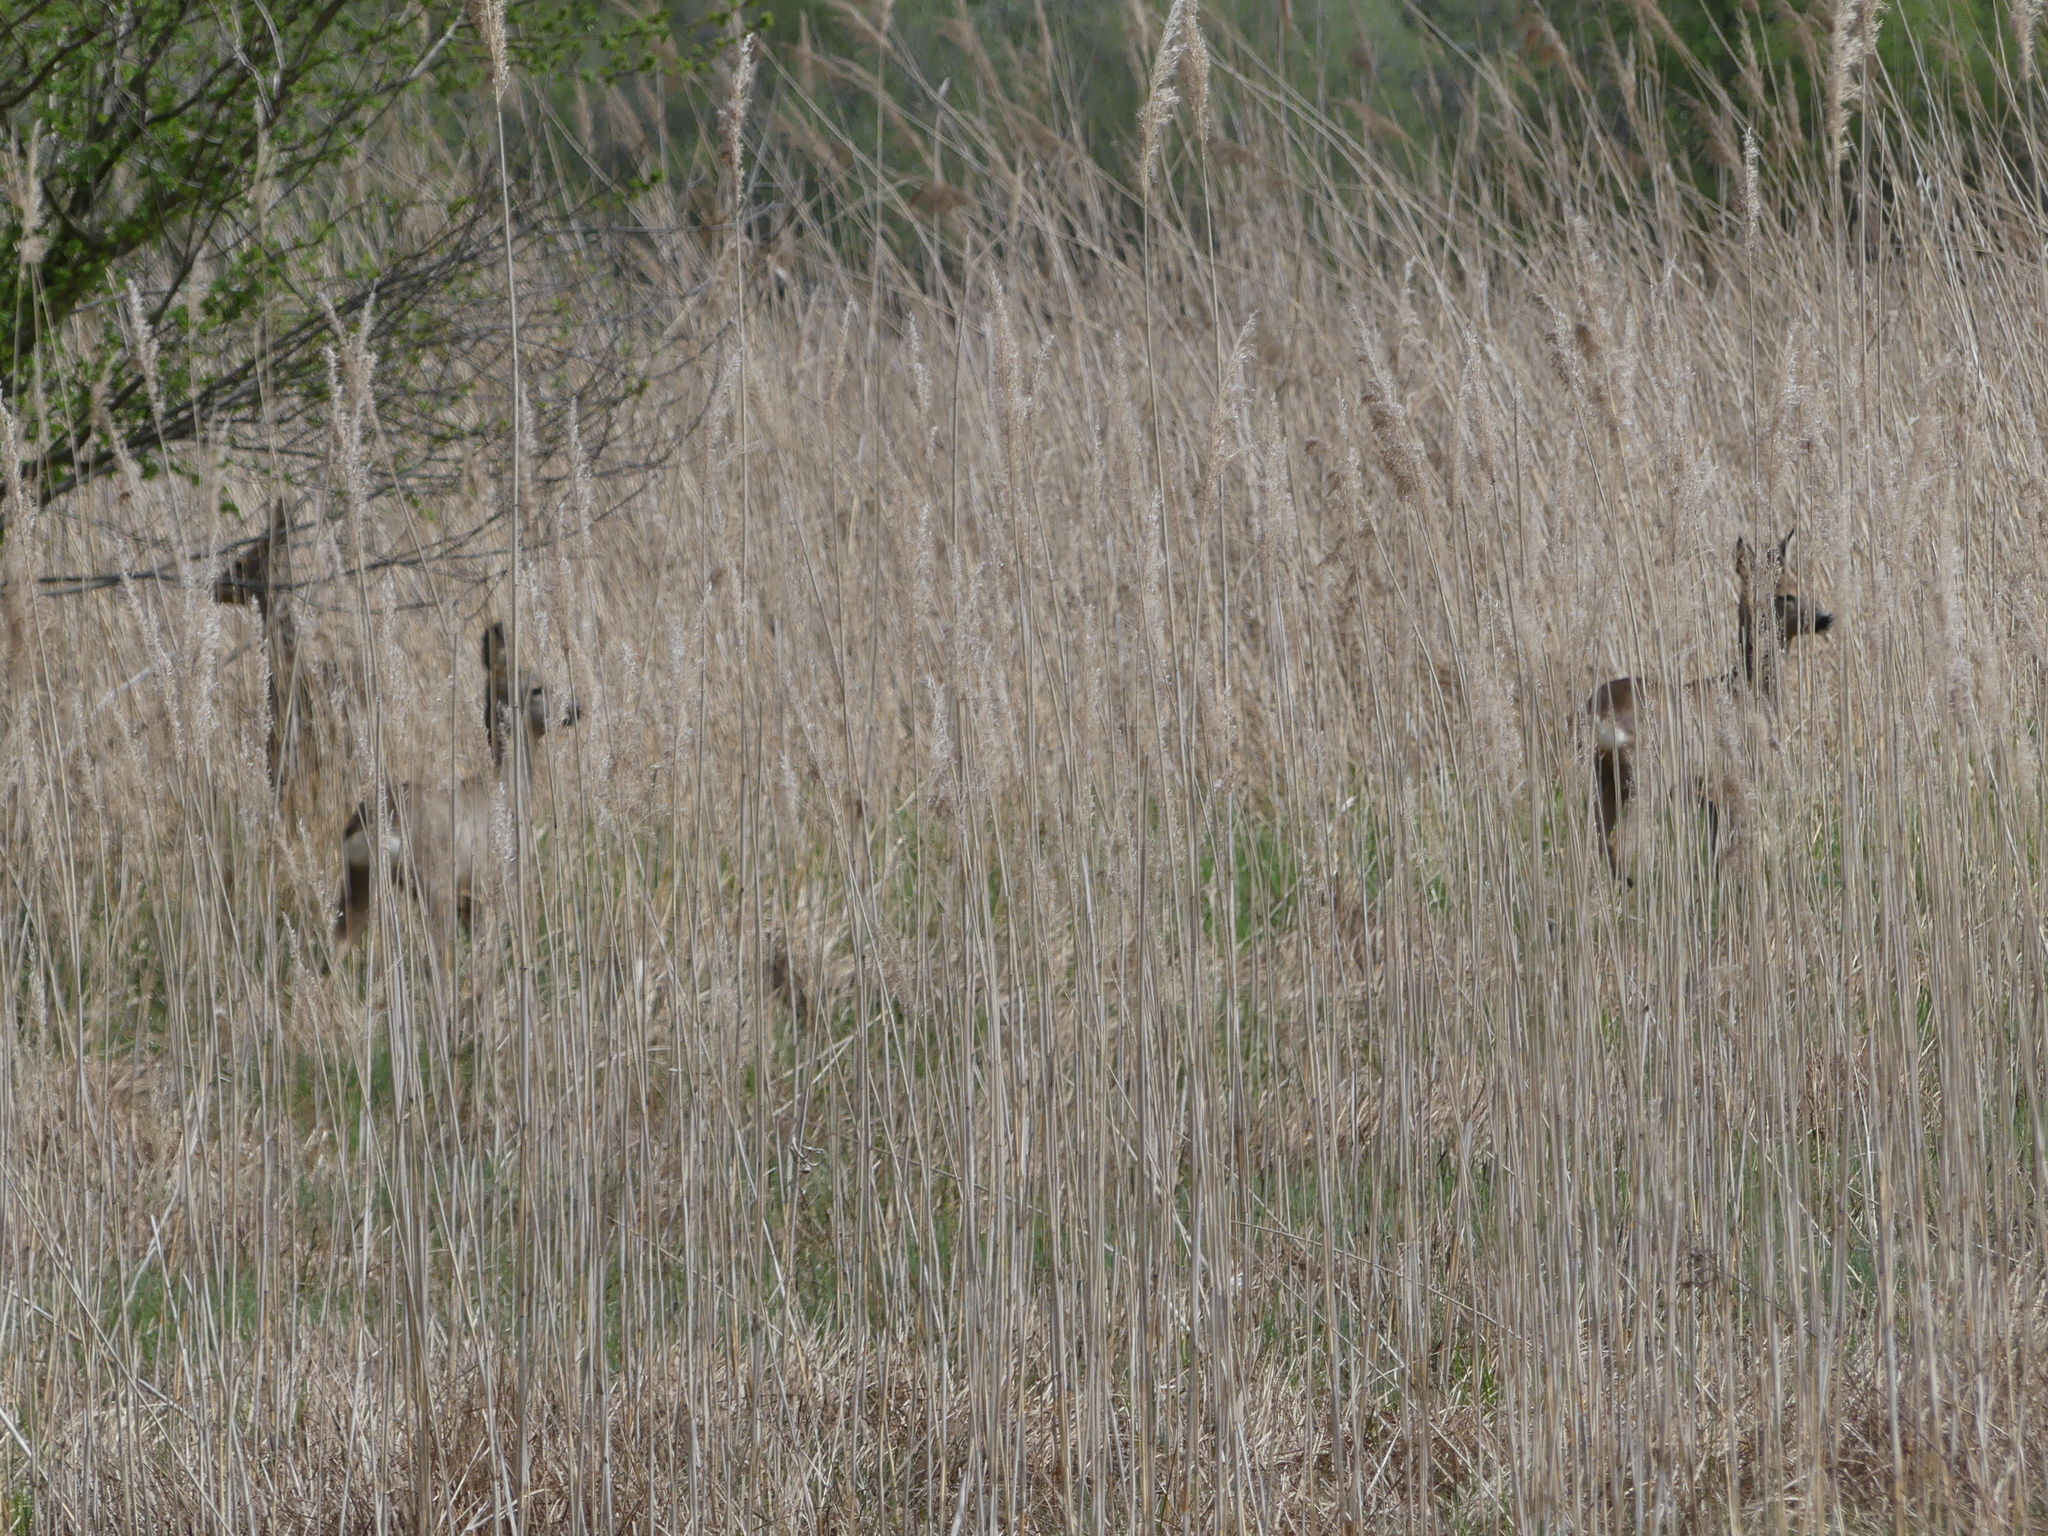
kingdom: Animalia
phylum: Chordata
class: Mammalia
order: Artiodactyla
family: Cervidae
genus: Capreolus
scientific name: Capreolus capreolus
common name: Western roe deer
